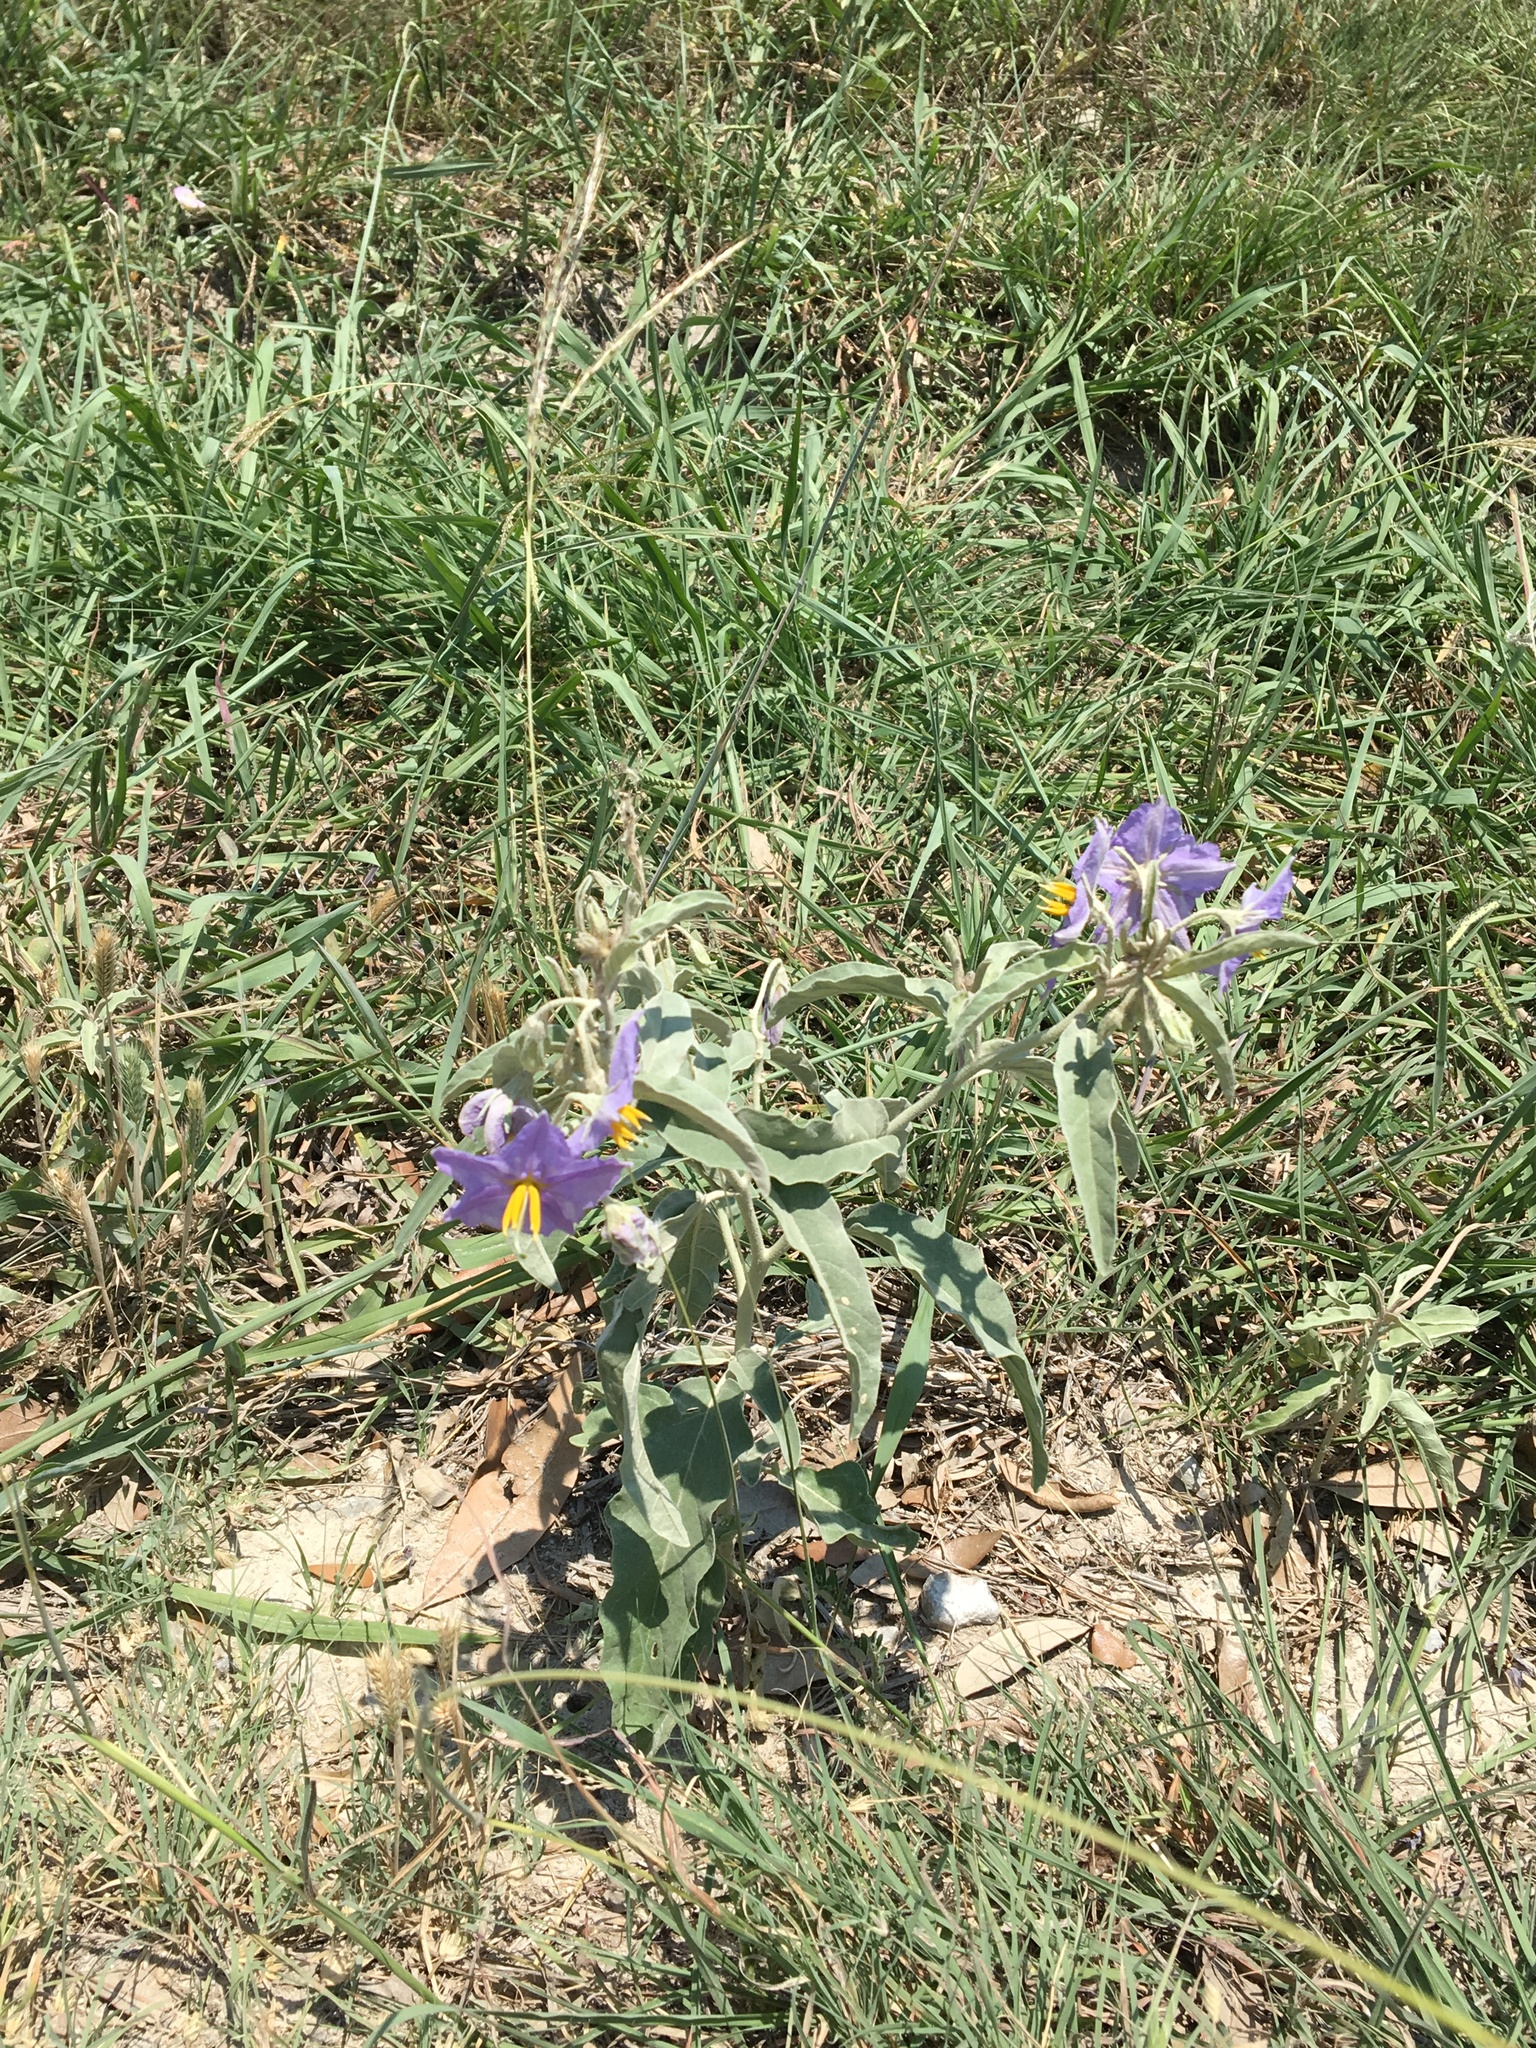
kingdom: Plantae
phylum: Tracheophyta
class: Magnoliopsida
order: Solanales
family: Solanaceae
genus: Solanum
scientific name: Solanum elaeagnifolium
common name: Silverleaf nightshade
